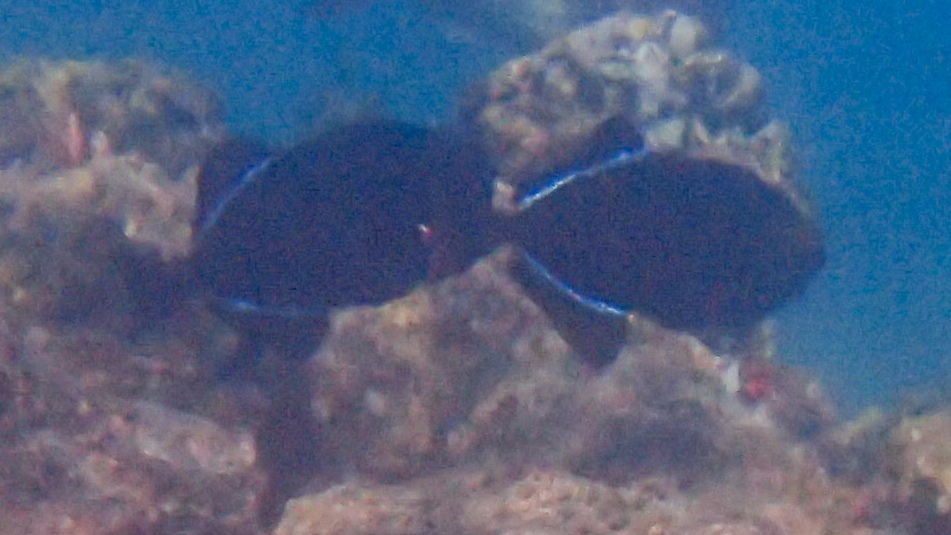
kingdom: Animalia
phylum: Chordata
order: Tetraodontiformes
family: Balistidae
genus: Melichthys
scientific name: Melichthys niger
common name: Black durgon
